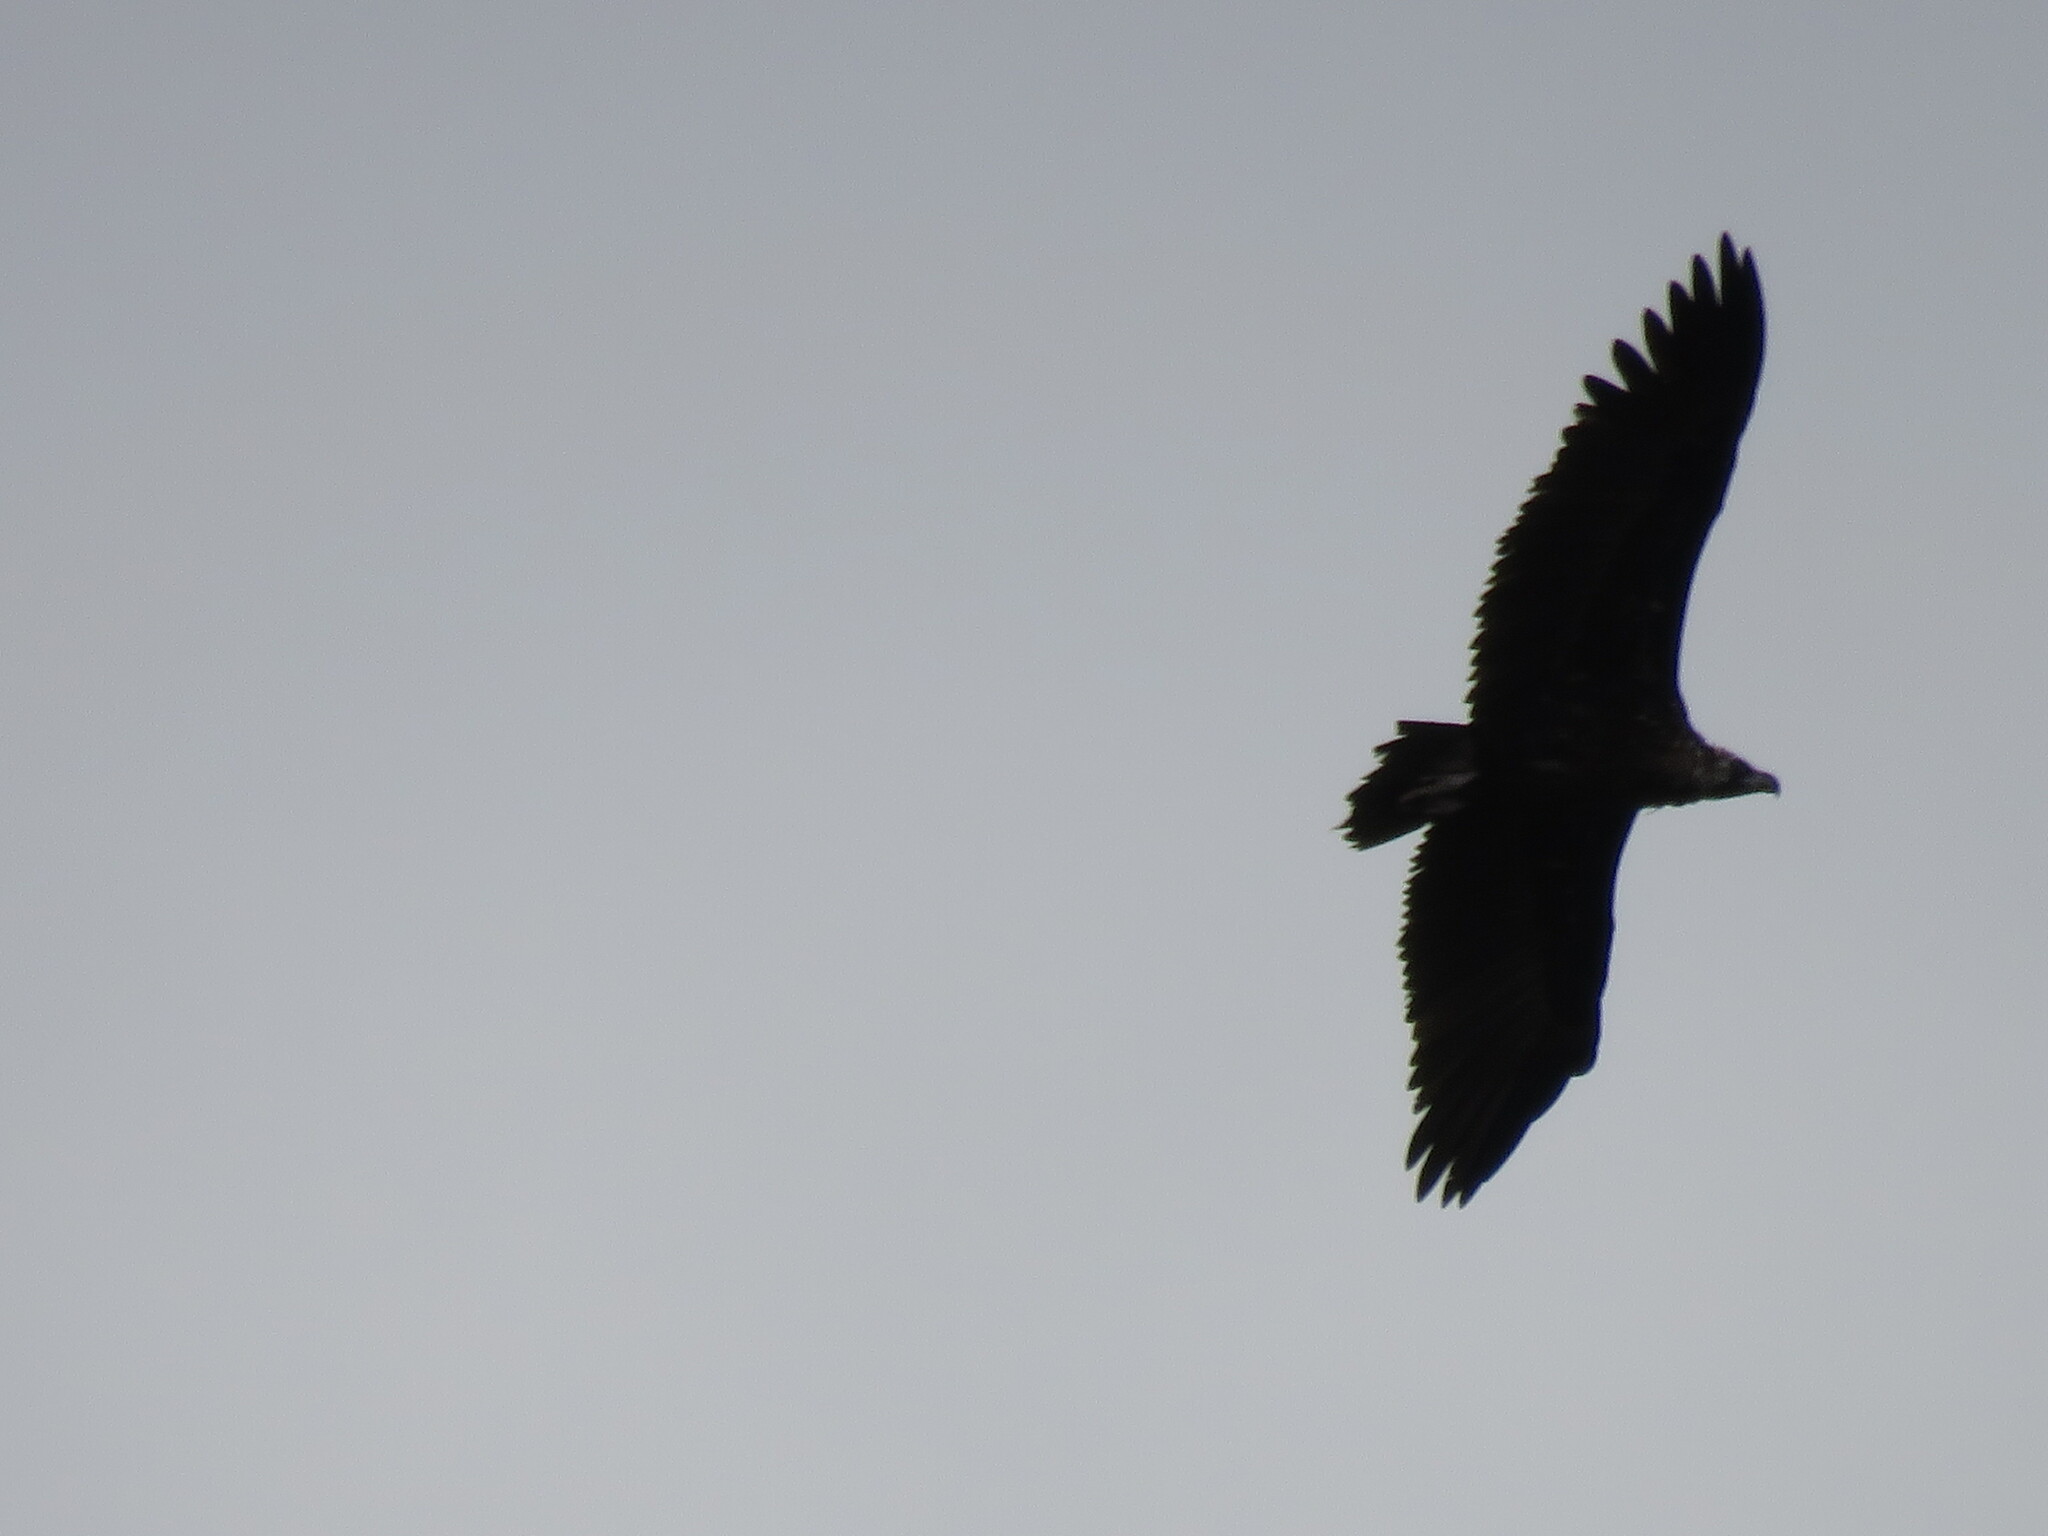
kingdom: Animalia
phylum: Chordata
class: Aves
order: Accipitriformes
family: Accipitridae
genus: Aegypius
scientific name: Aegypius monachus
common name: Cinereous vulture
